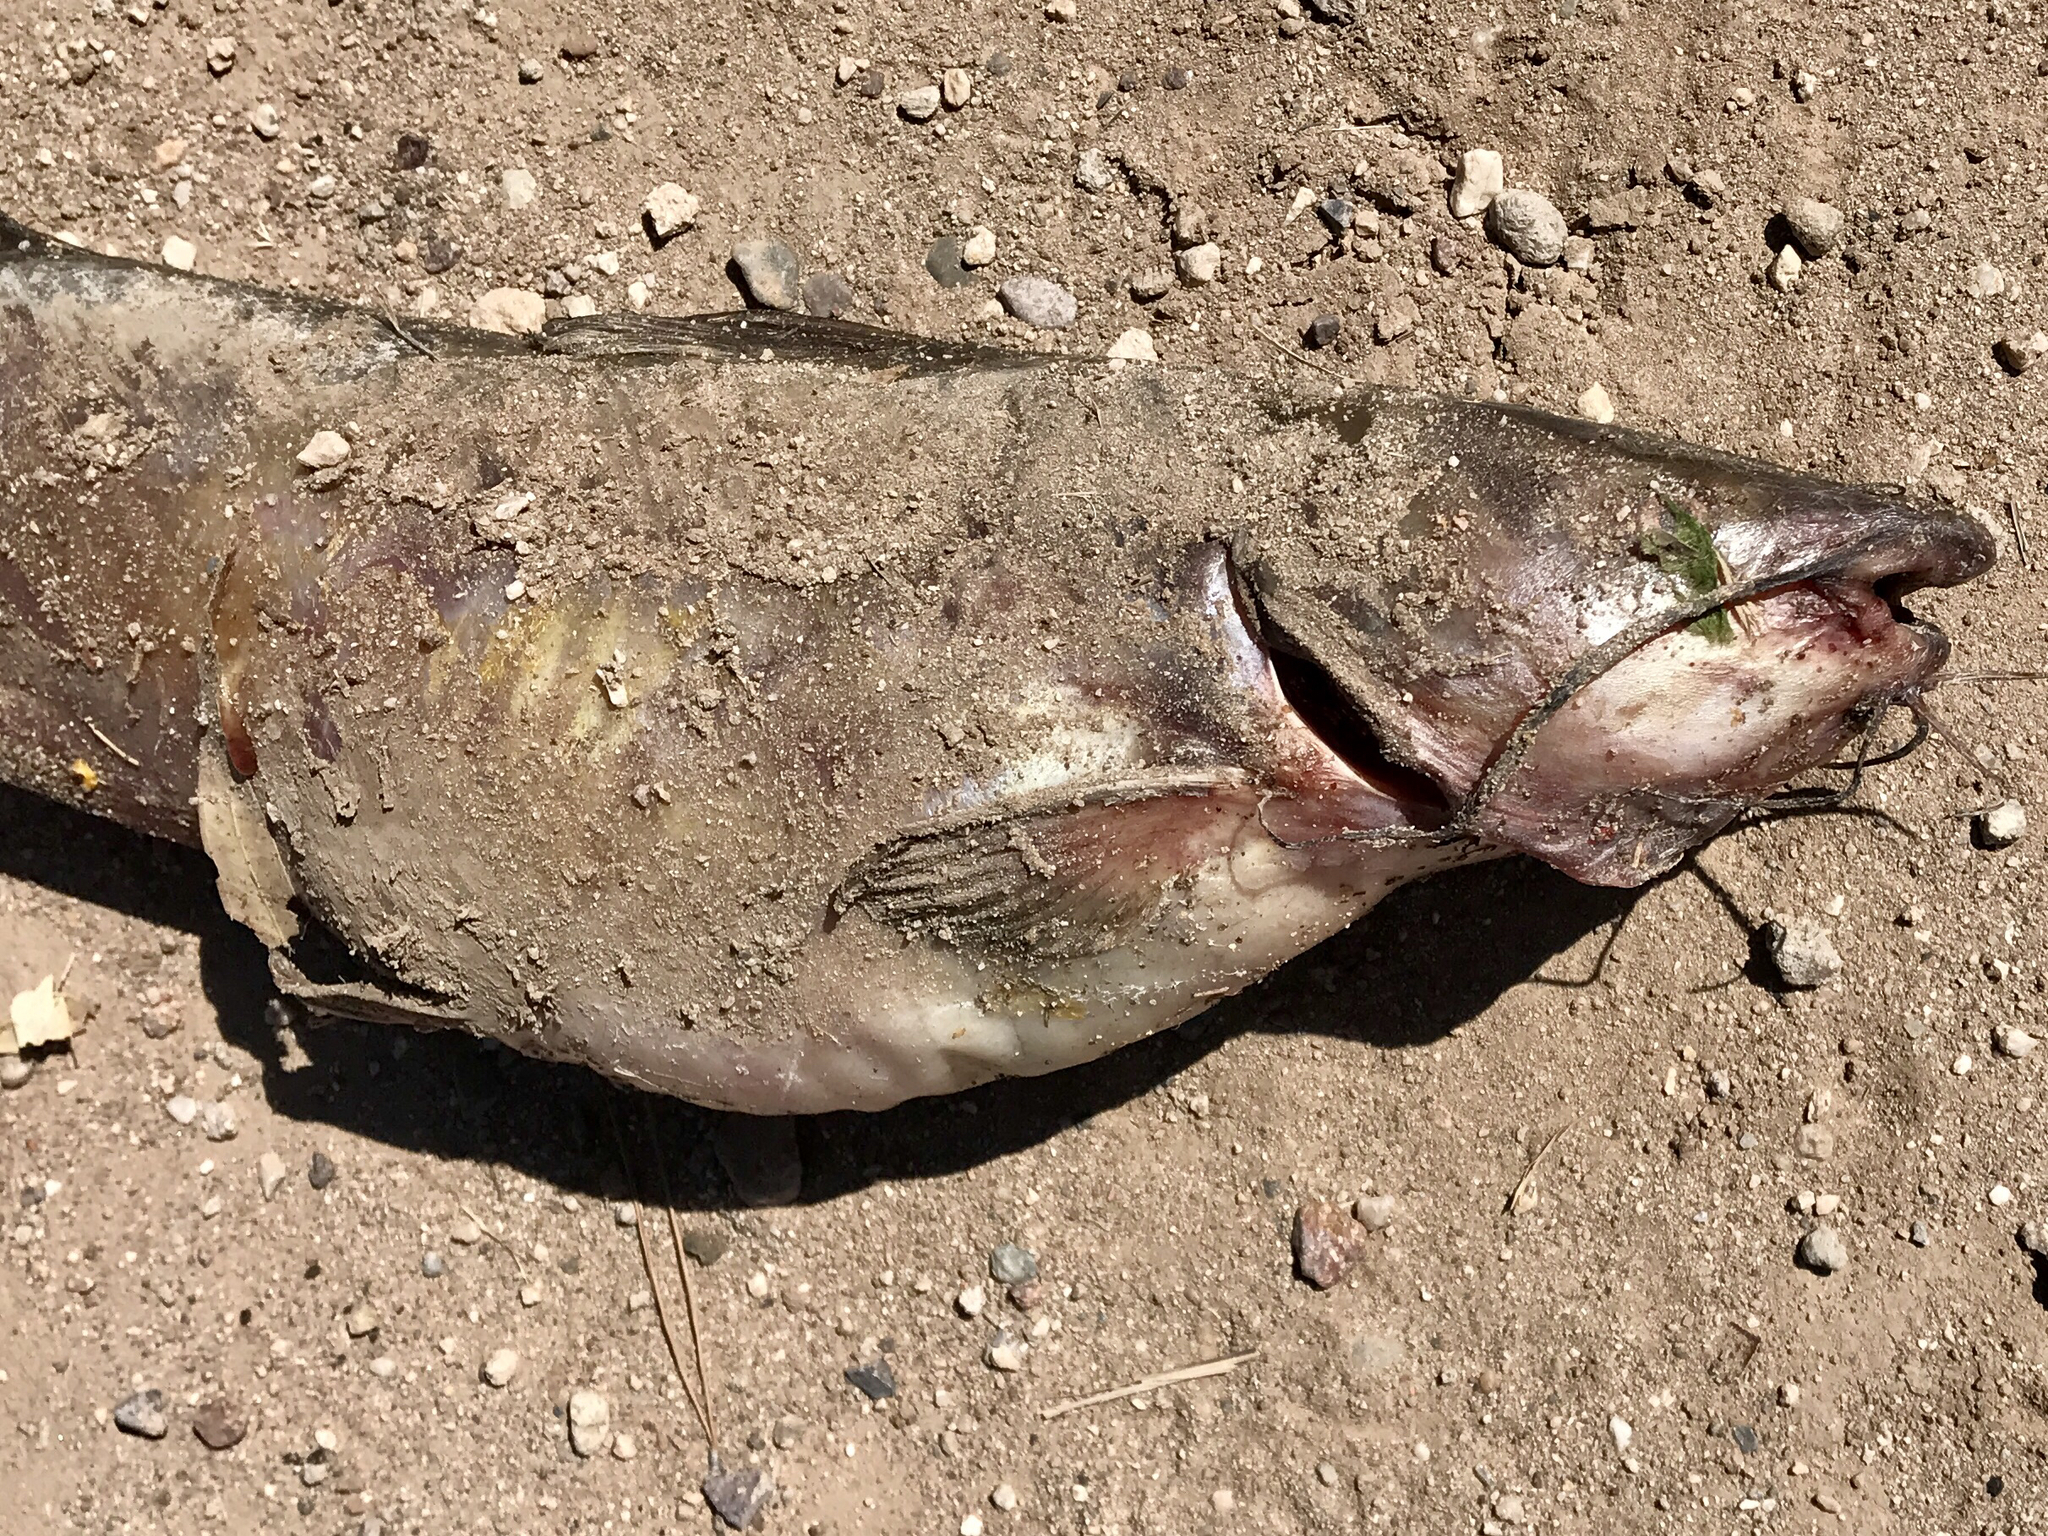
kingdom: Animalia
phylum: Chordata
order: Siluriformes
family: Ictaluridae
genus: Ictalurus
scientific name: Ictalurus punctatus
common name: Channel catfish
